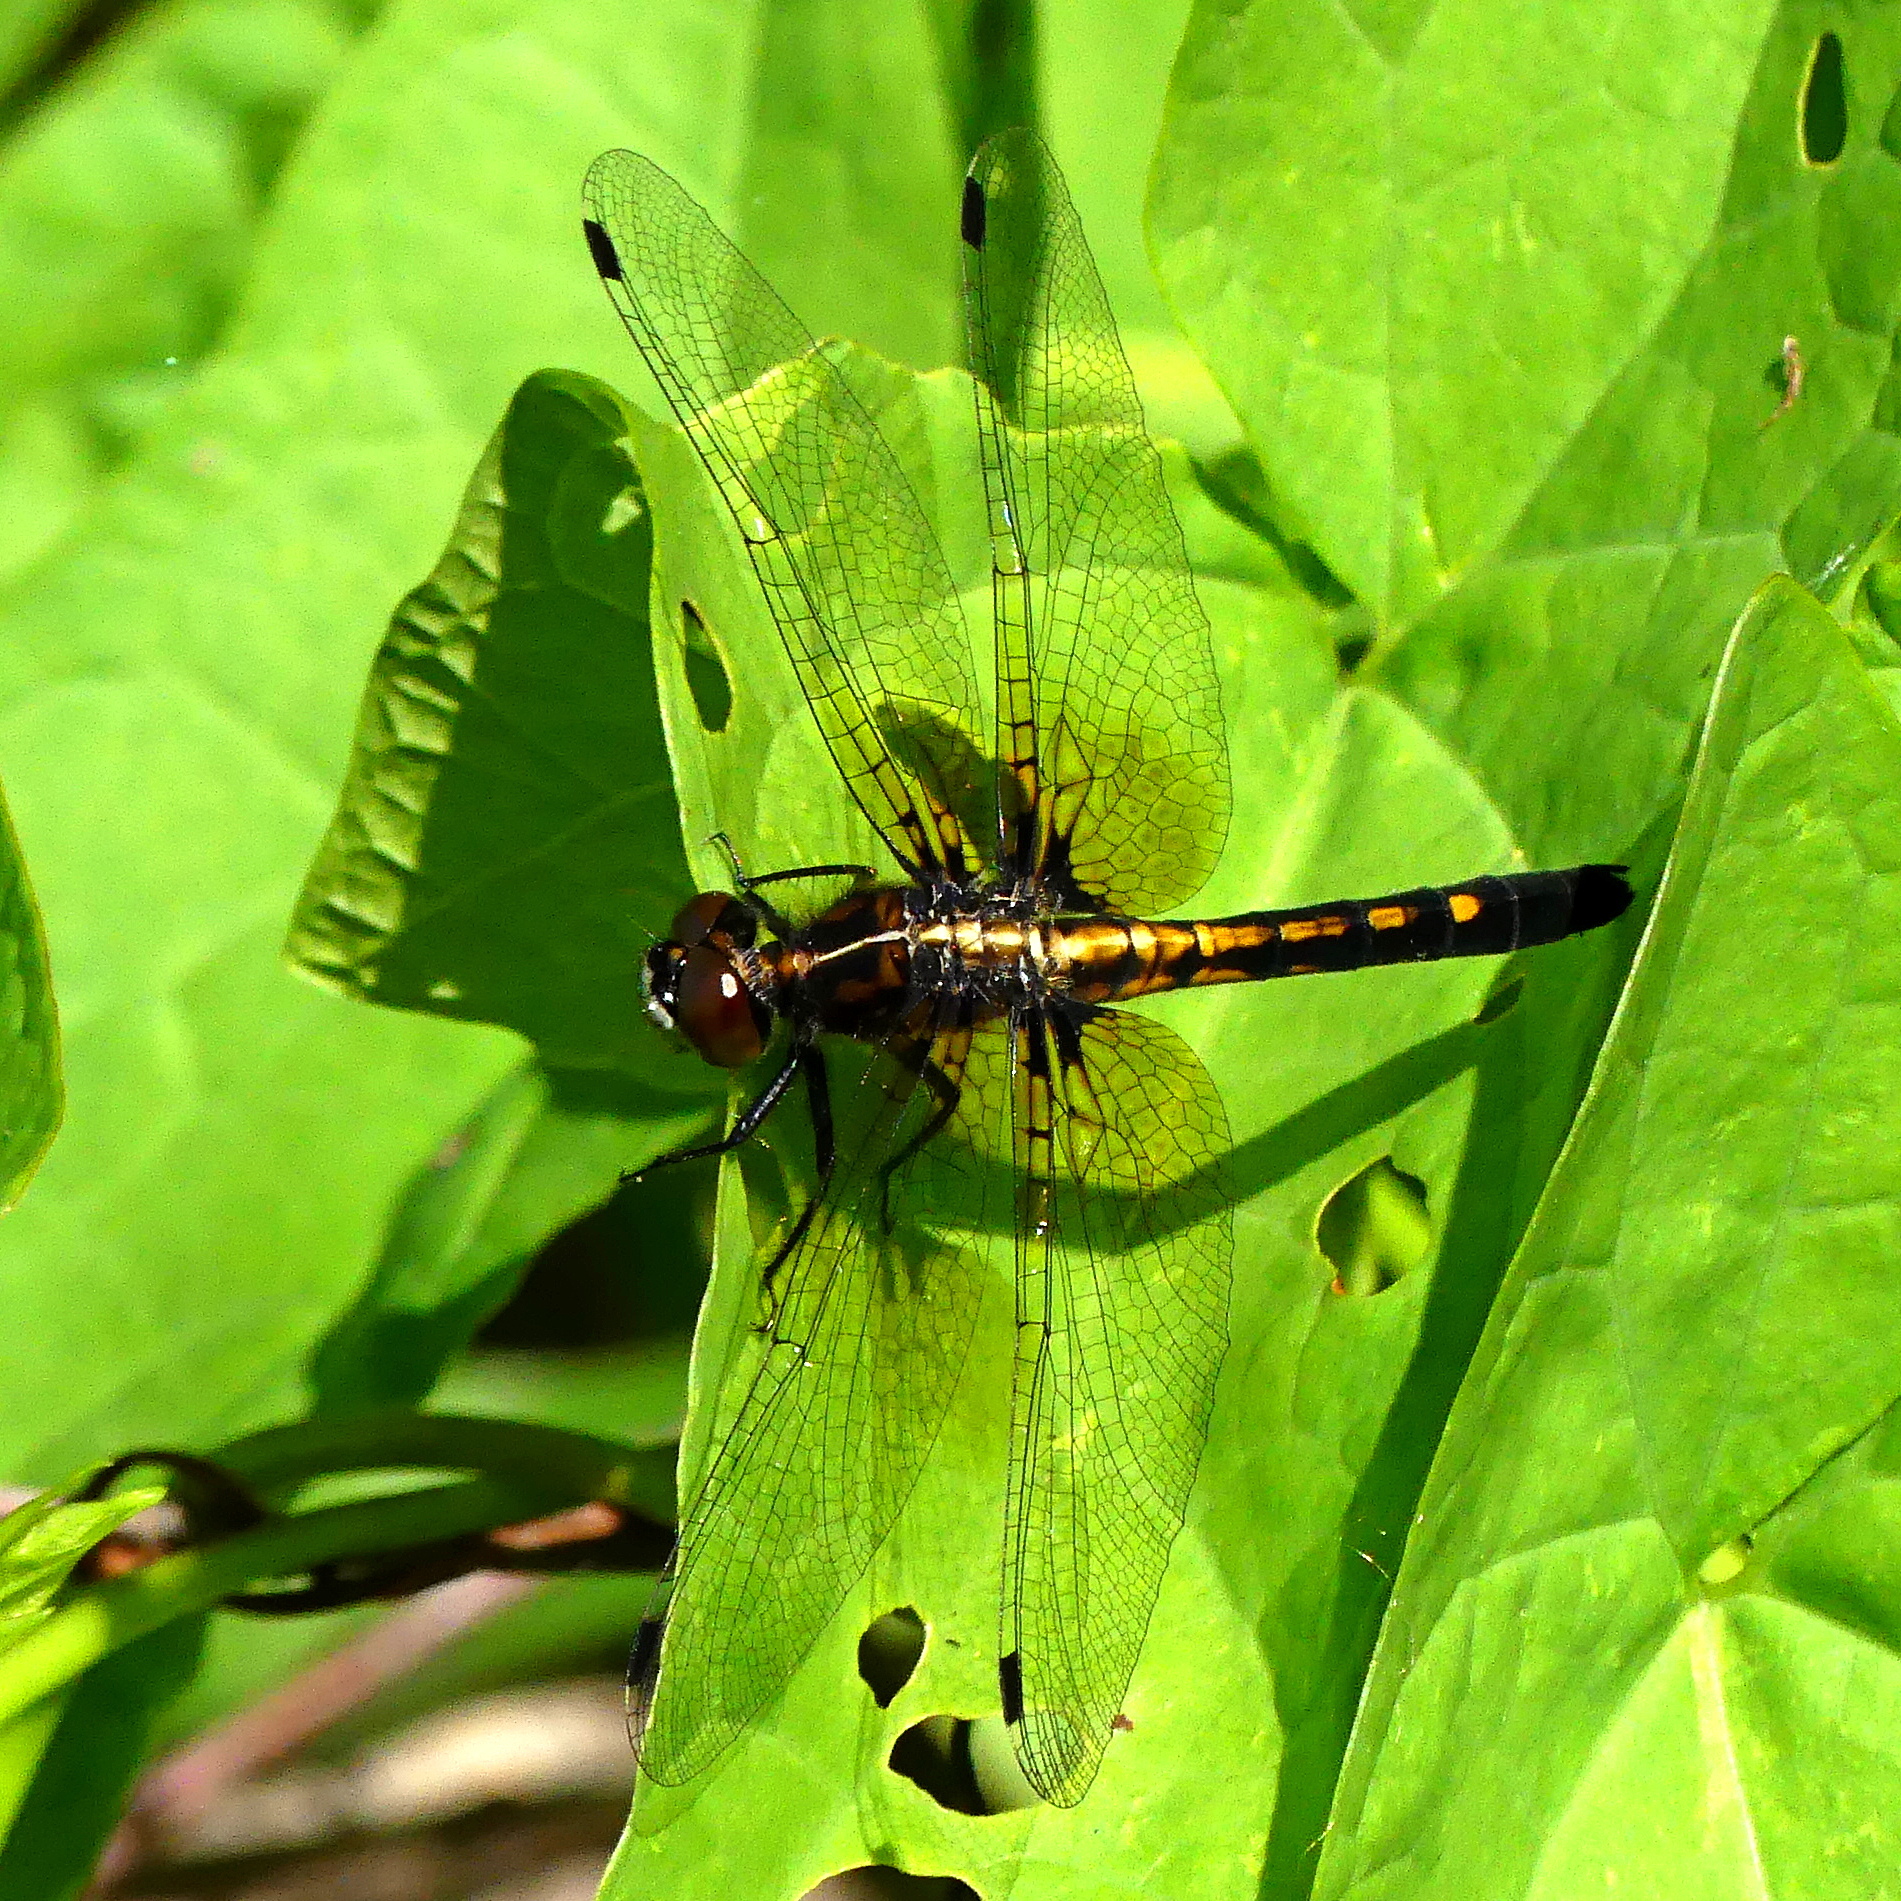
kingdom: Animalia
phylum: Arthropoda
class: Insecta
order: Odonata
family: Libellulidae
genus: Leucorrhinia
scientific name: Leucorrhinia intacta
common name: Dot-tailed whiteface
